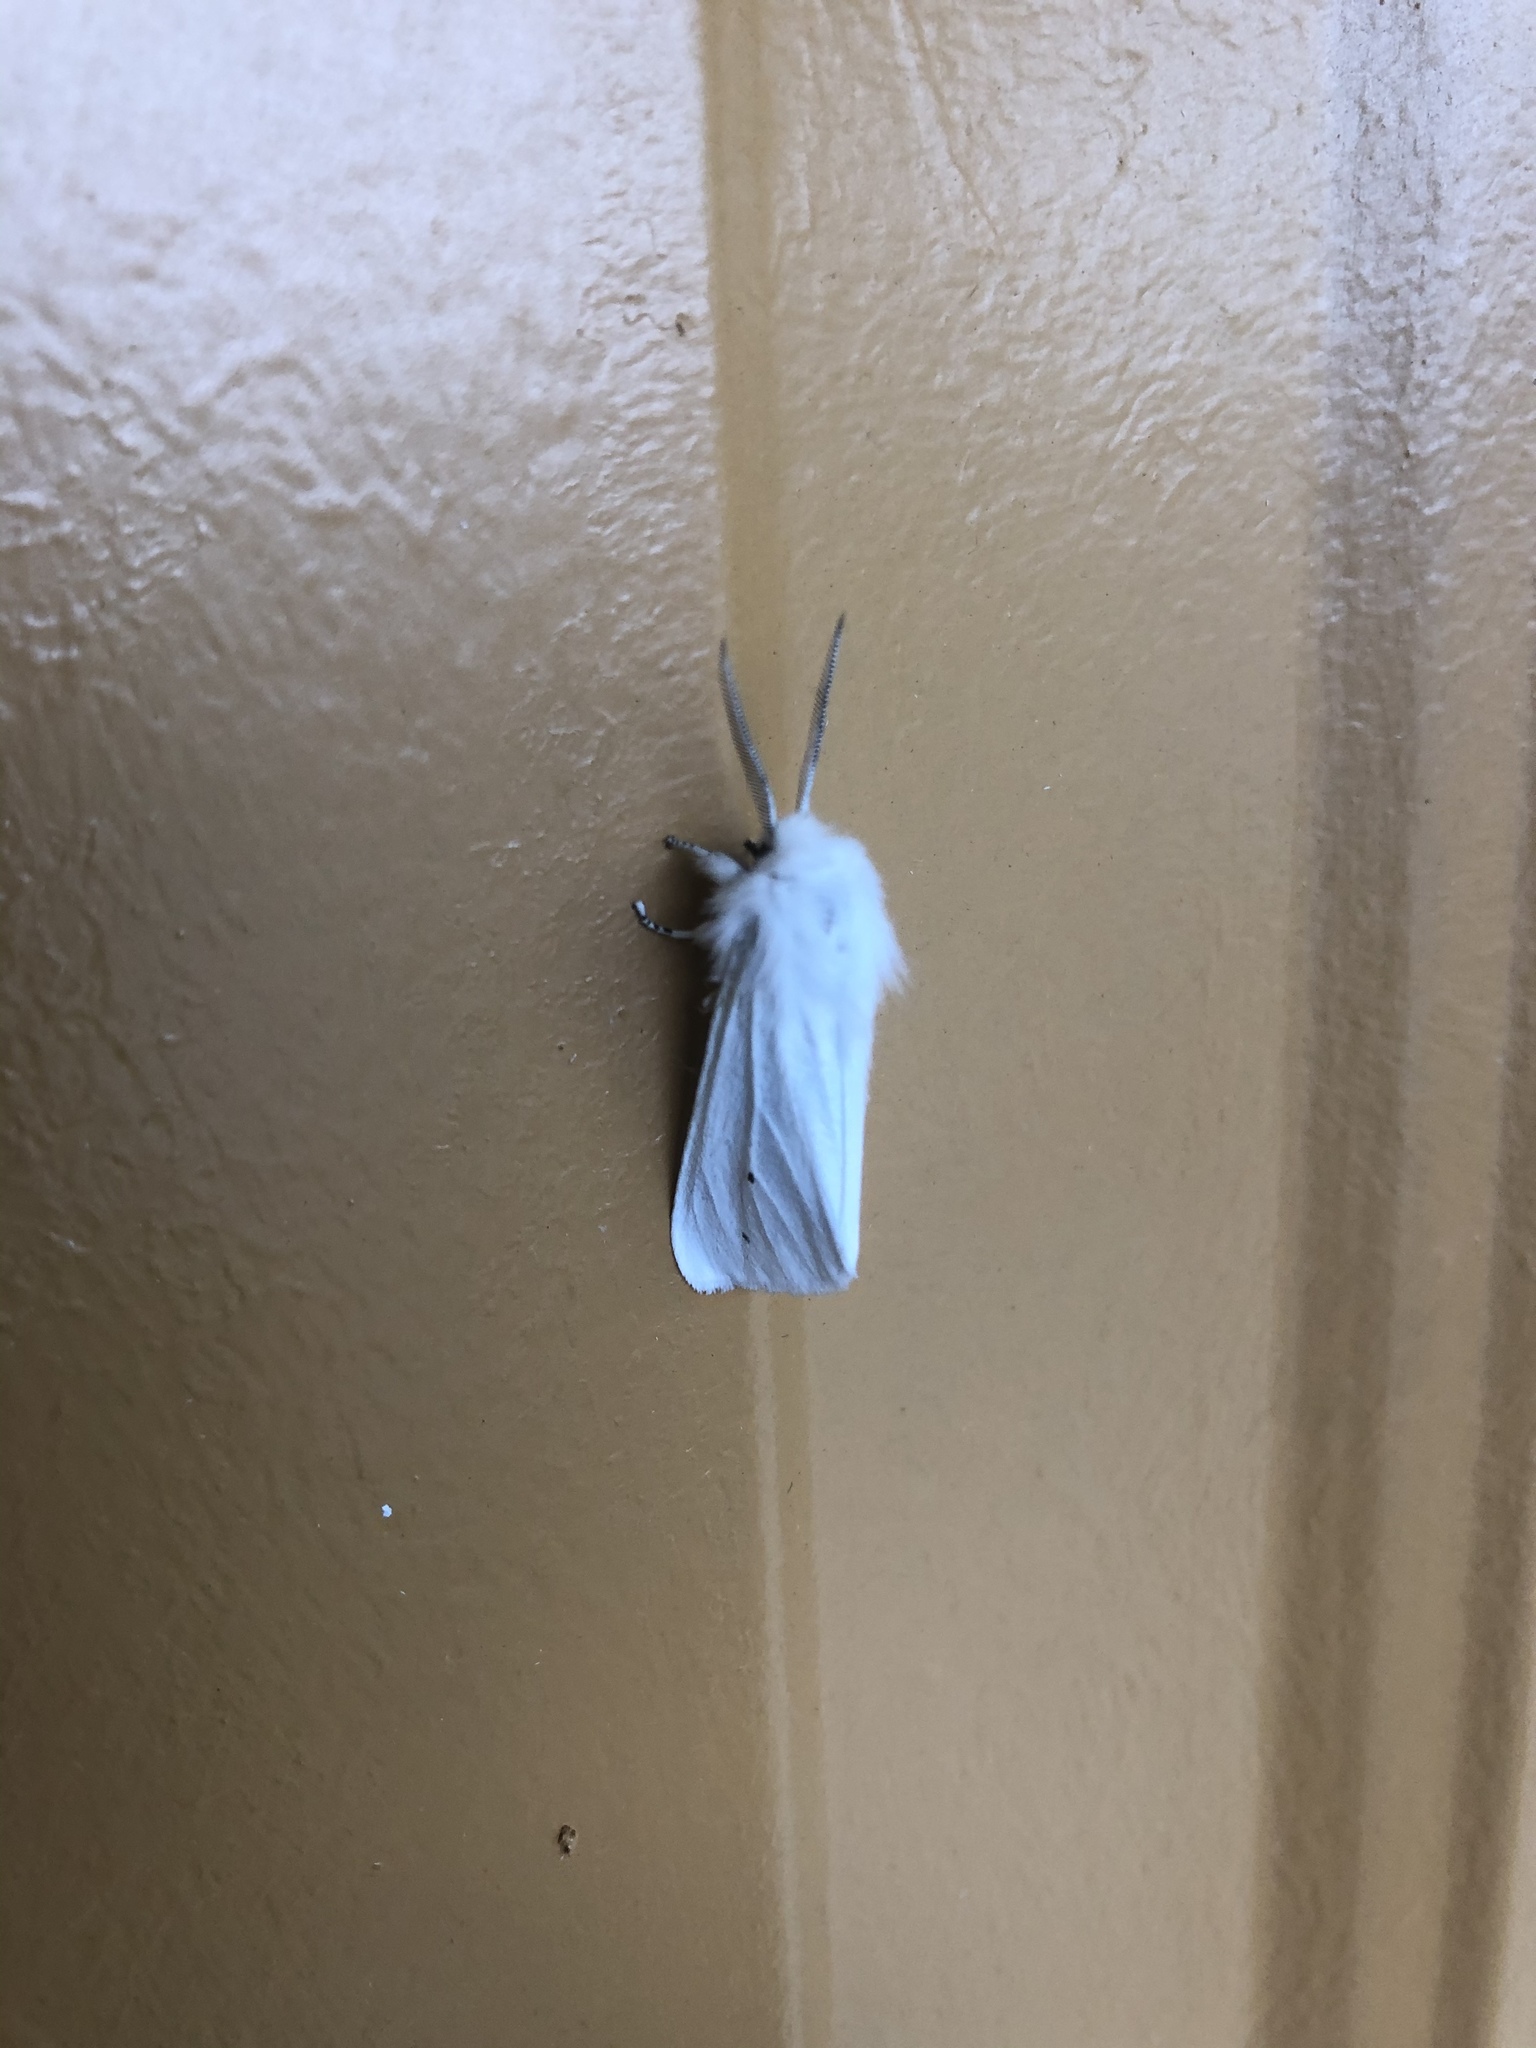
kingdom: Animalia
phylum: Arthropoda
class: Insecta
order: Lepidoptera
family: Erebidae
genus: Spilosoma
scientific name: Spilosoma virginica
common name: Virginia tiger moth
